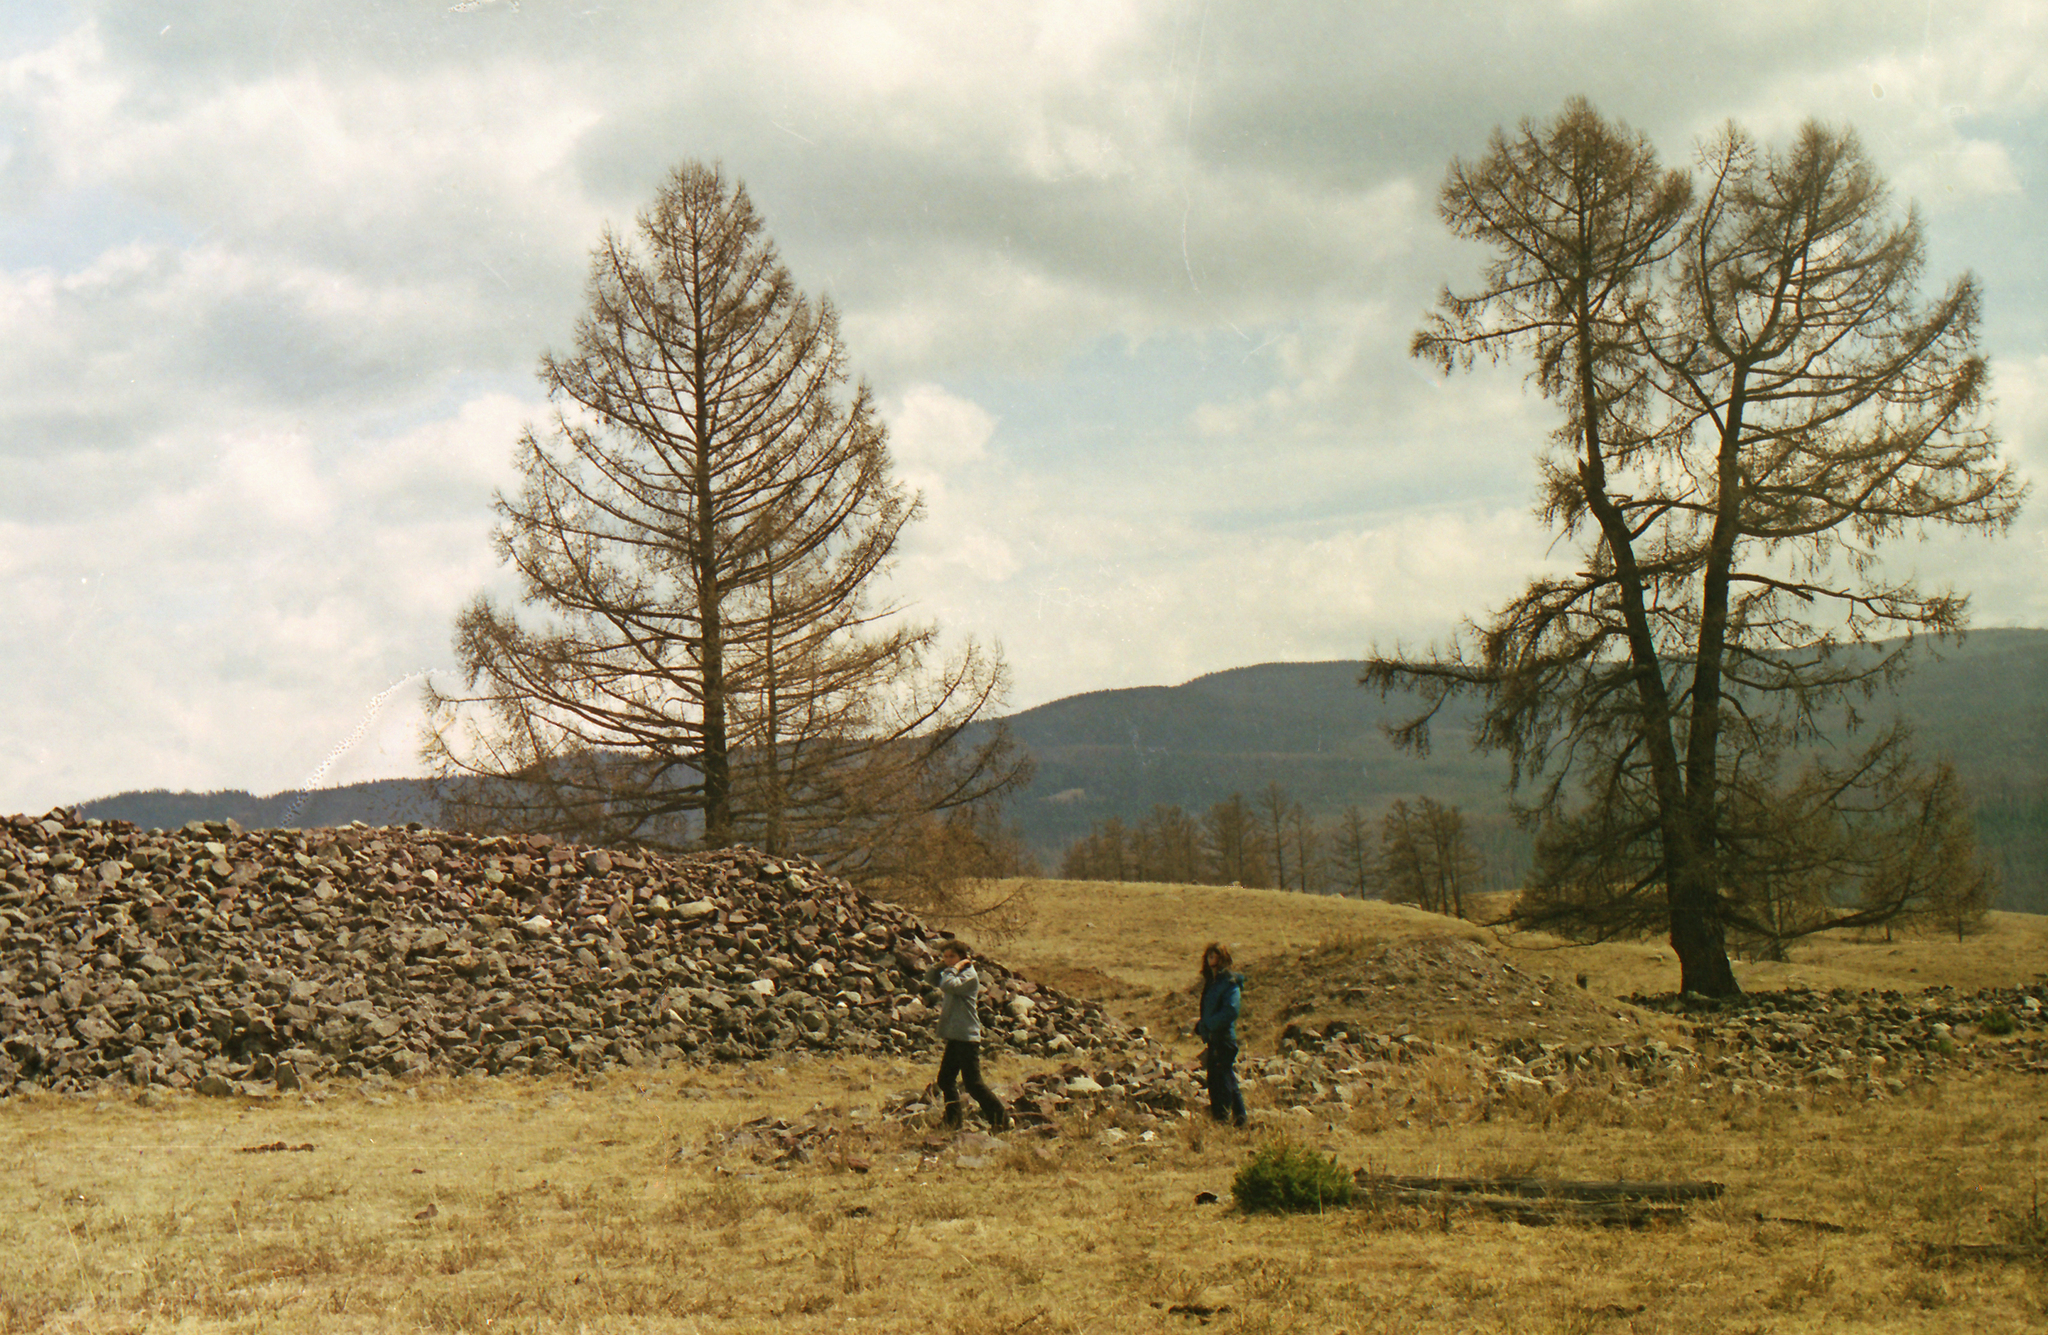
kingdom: Plantae
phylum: Tracheophyta
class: Pinopsida
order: Pinales
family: Pinaceae
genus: Larix
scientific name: Larix sibirica
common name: Siberian larch
